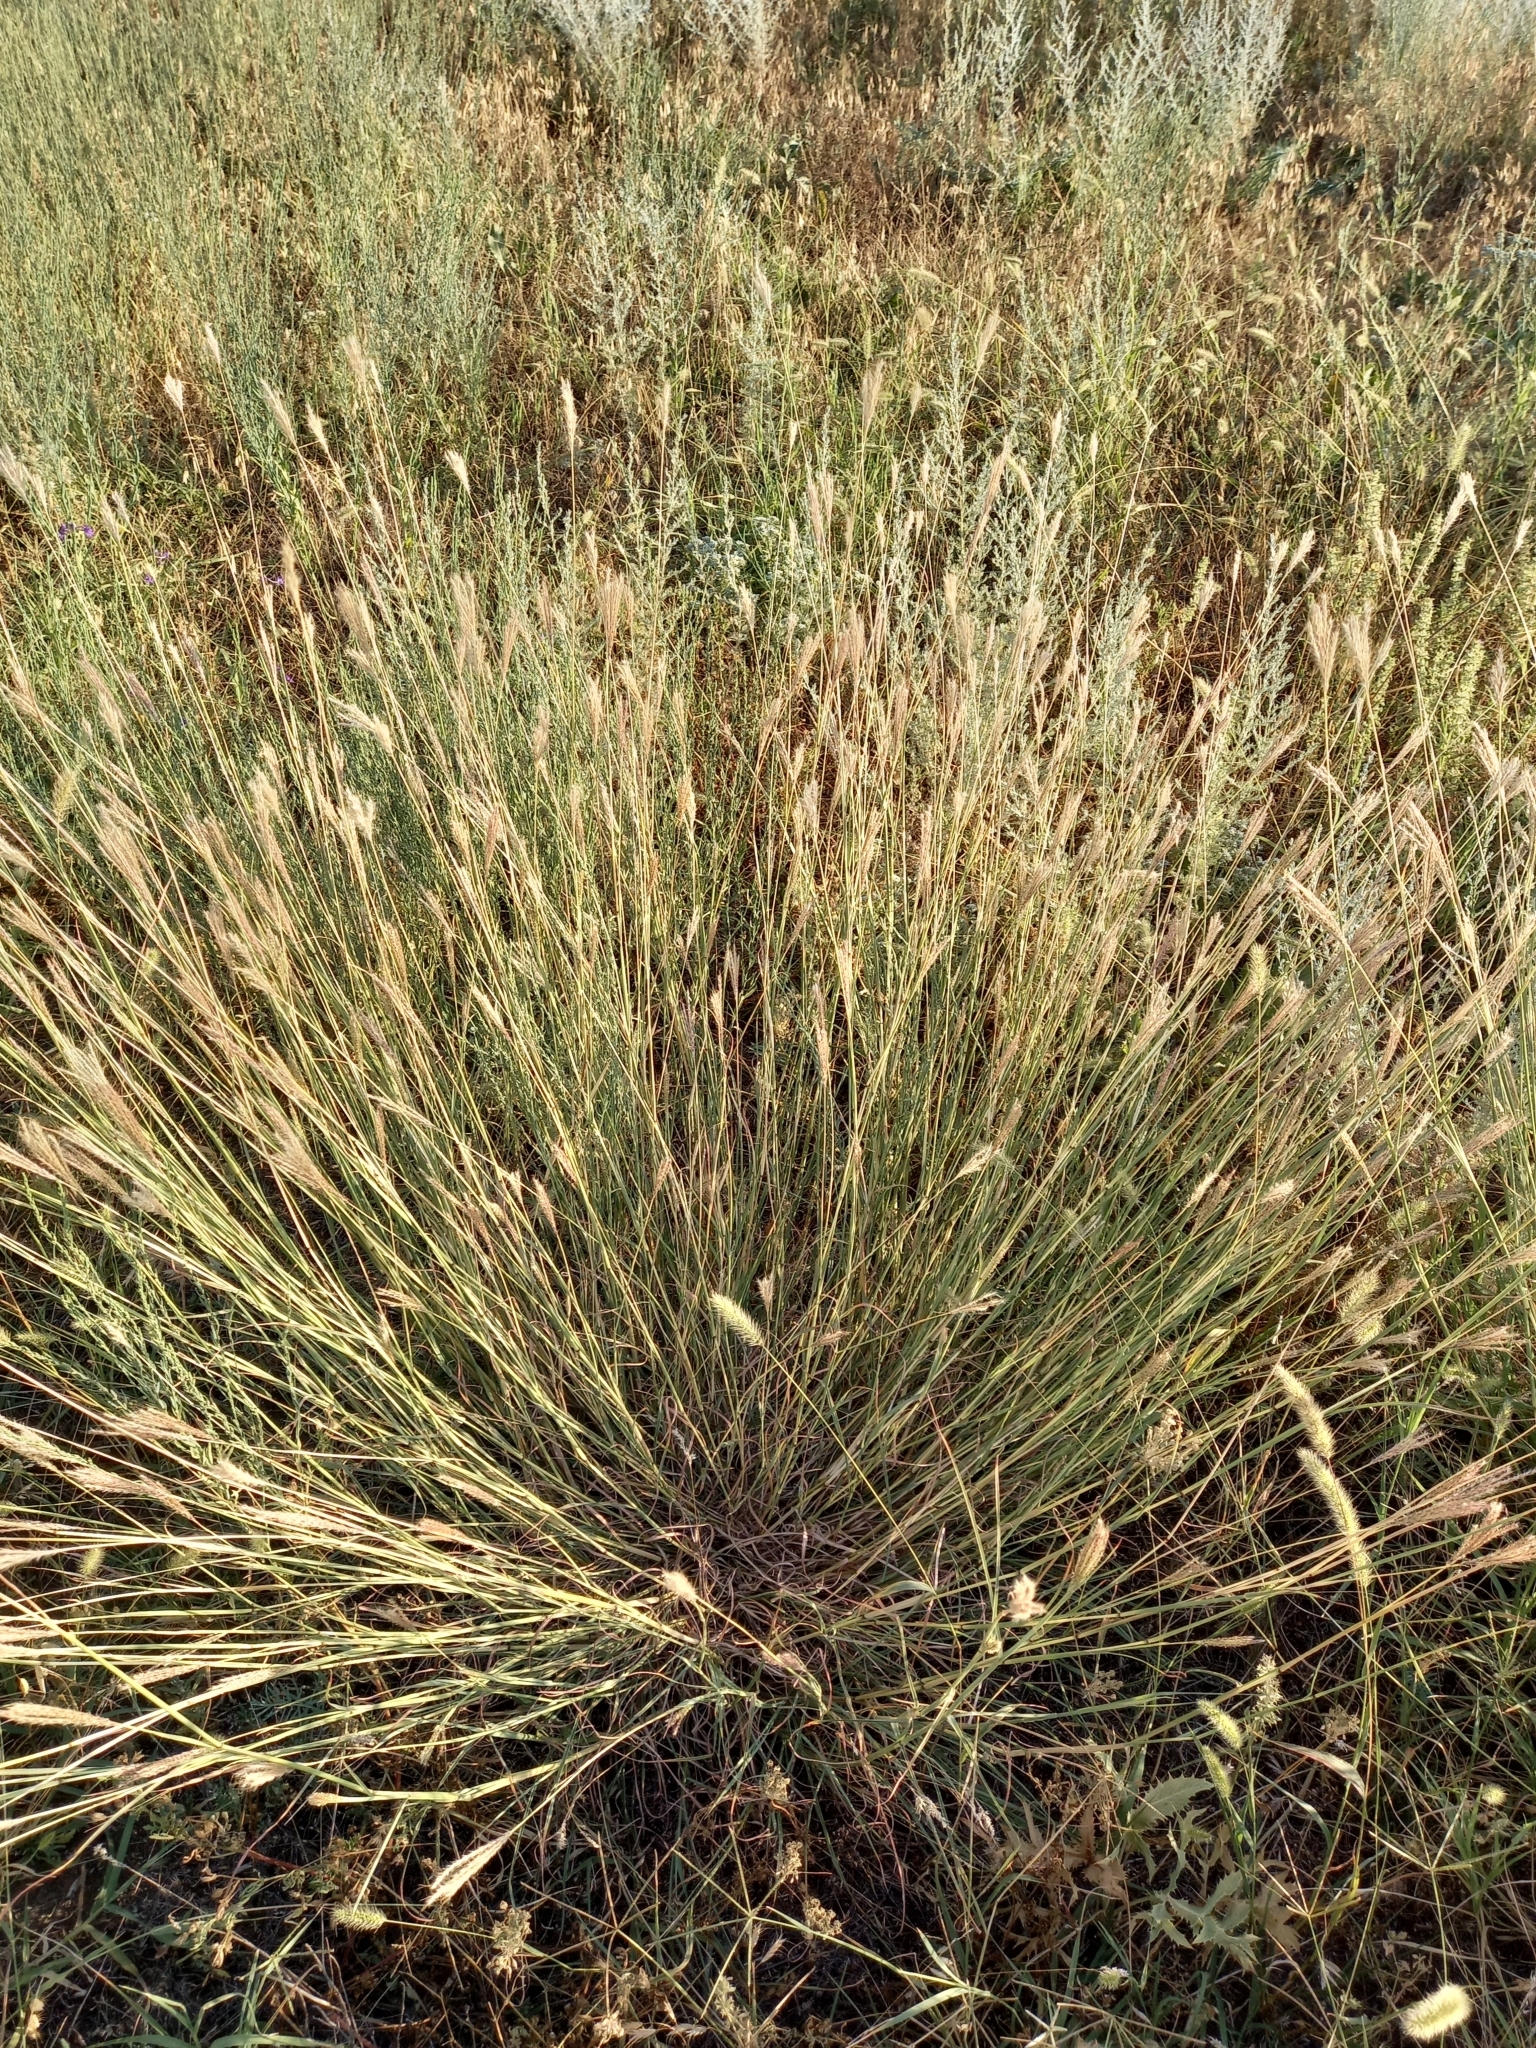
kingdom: Plantae
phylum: Tracheophyta
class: Liliopsida
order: Poales
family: Poaceae
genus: Bothriochloa
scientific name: Bothriochloa ischaemum
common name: Yellow bluestem
